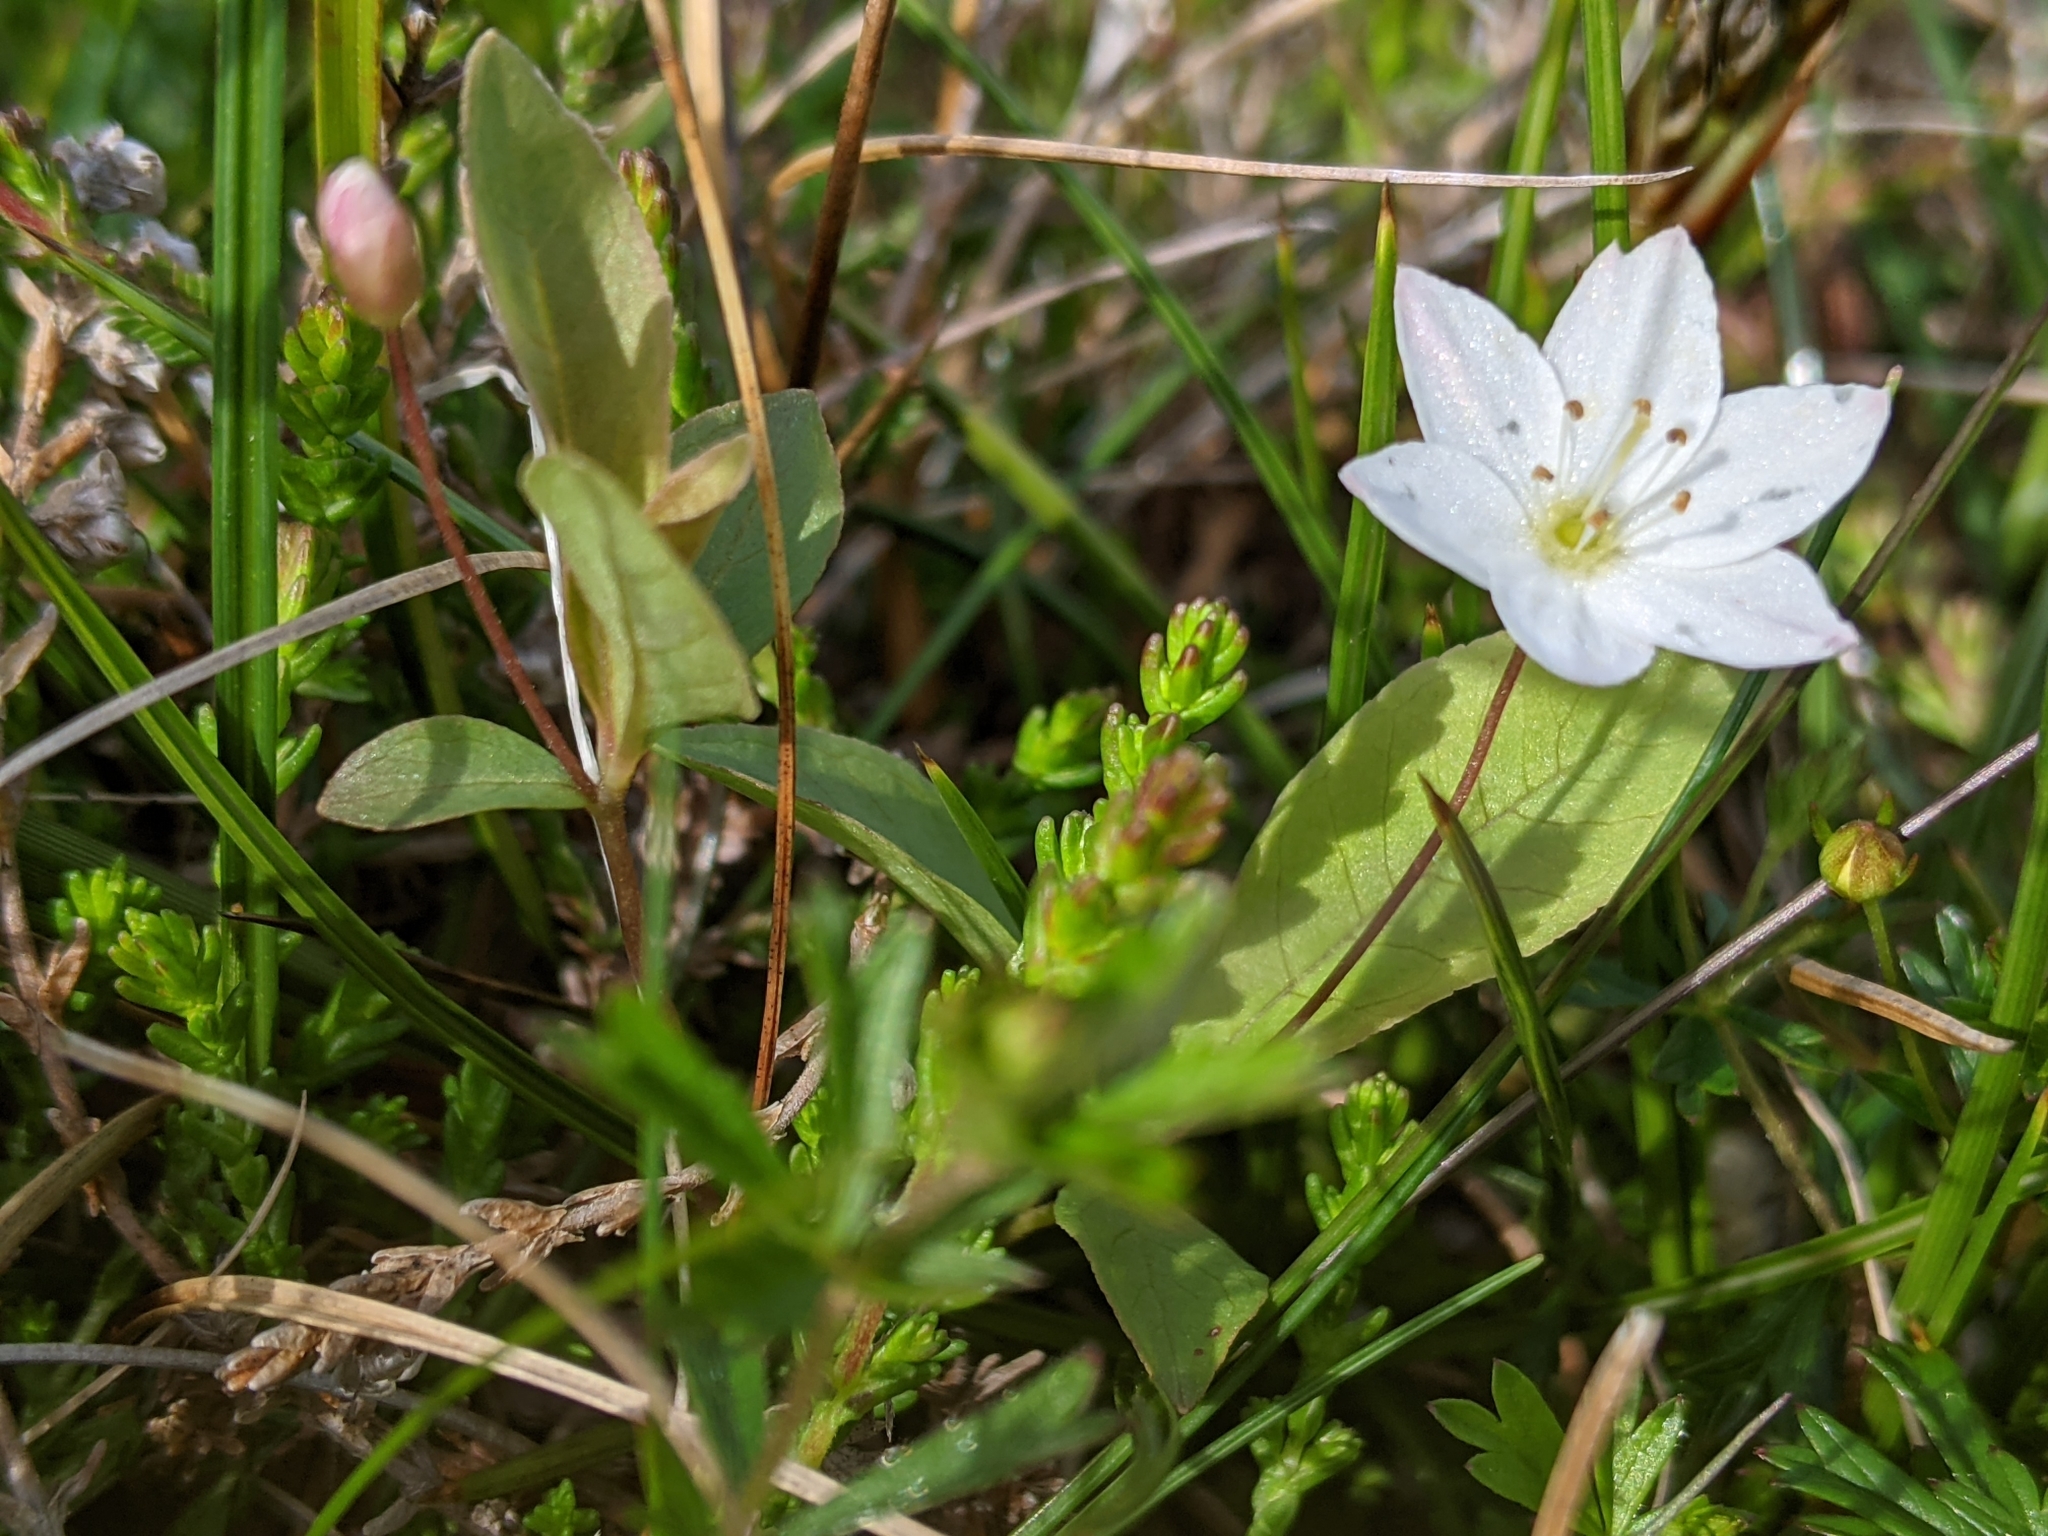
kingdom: Plantae
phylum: Tracheophyta
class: Magnoliopsida
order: Ericales
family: Primulaceae
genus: Lysimachia
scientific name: Lysimachia europaea
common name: Arctic starflower
